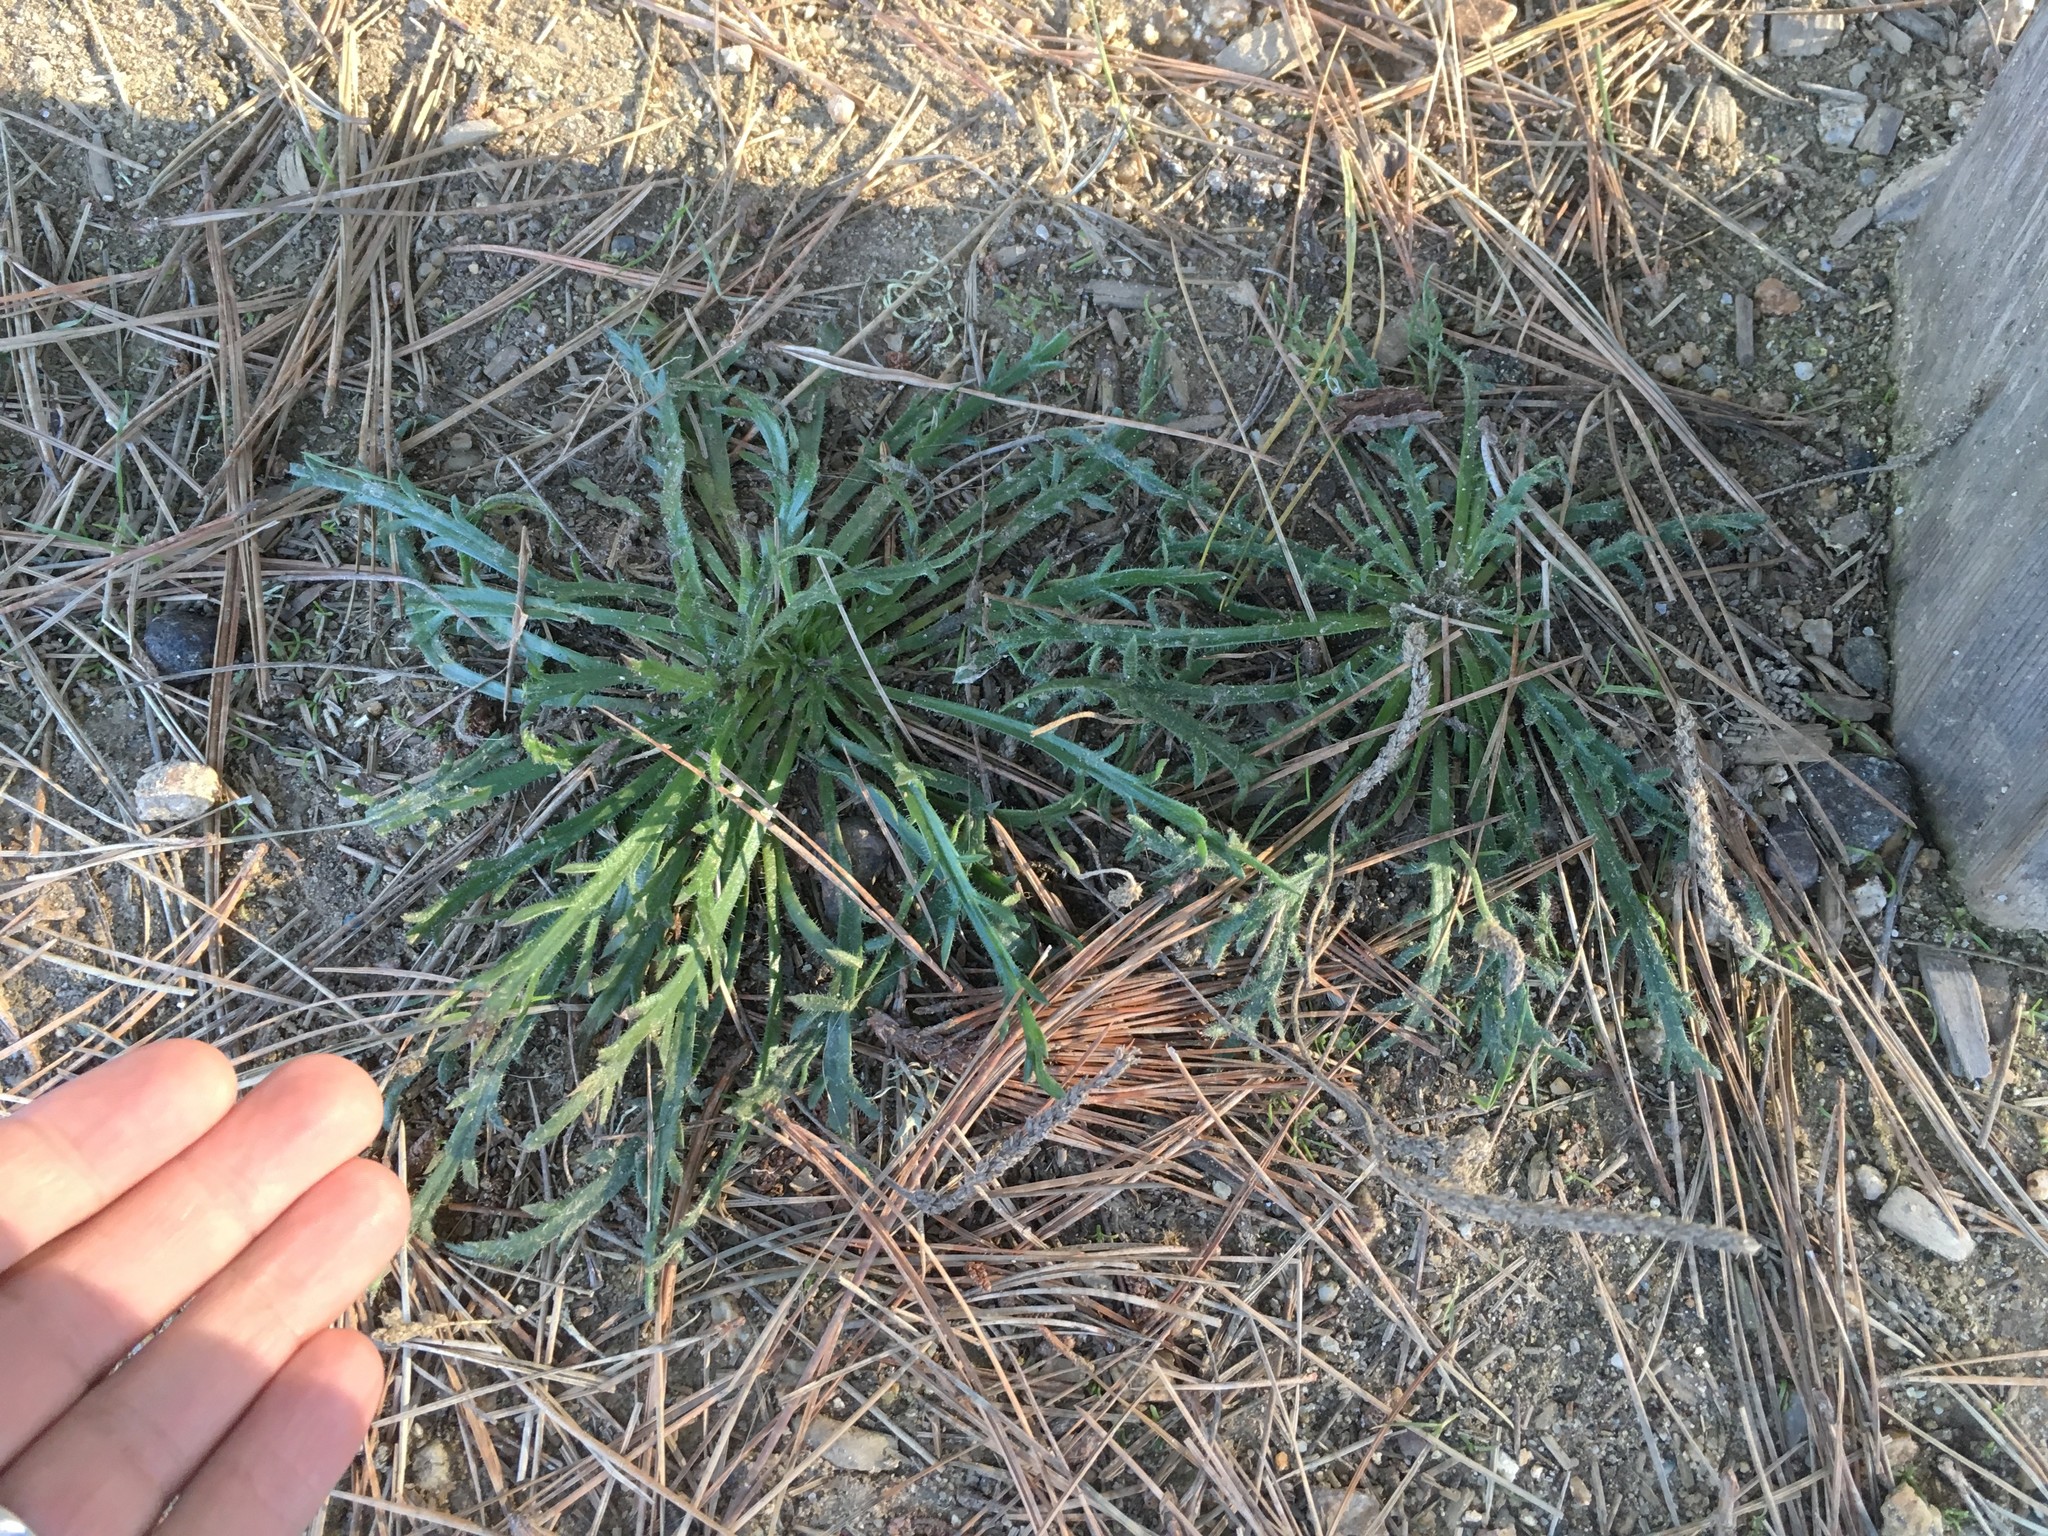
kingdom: Plantae
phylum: Tracheophyta
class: Magnoliopsida
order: Lamiales
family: Plantaginaceae
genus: Plantago
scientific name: Plantago coronopus
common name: Buck's-horn plantain
